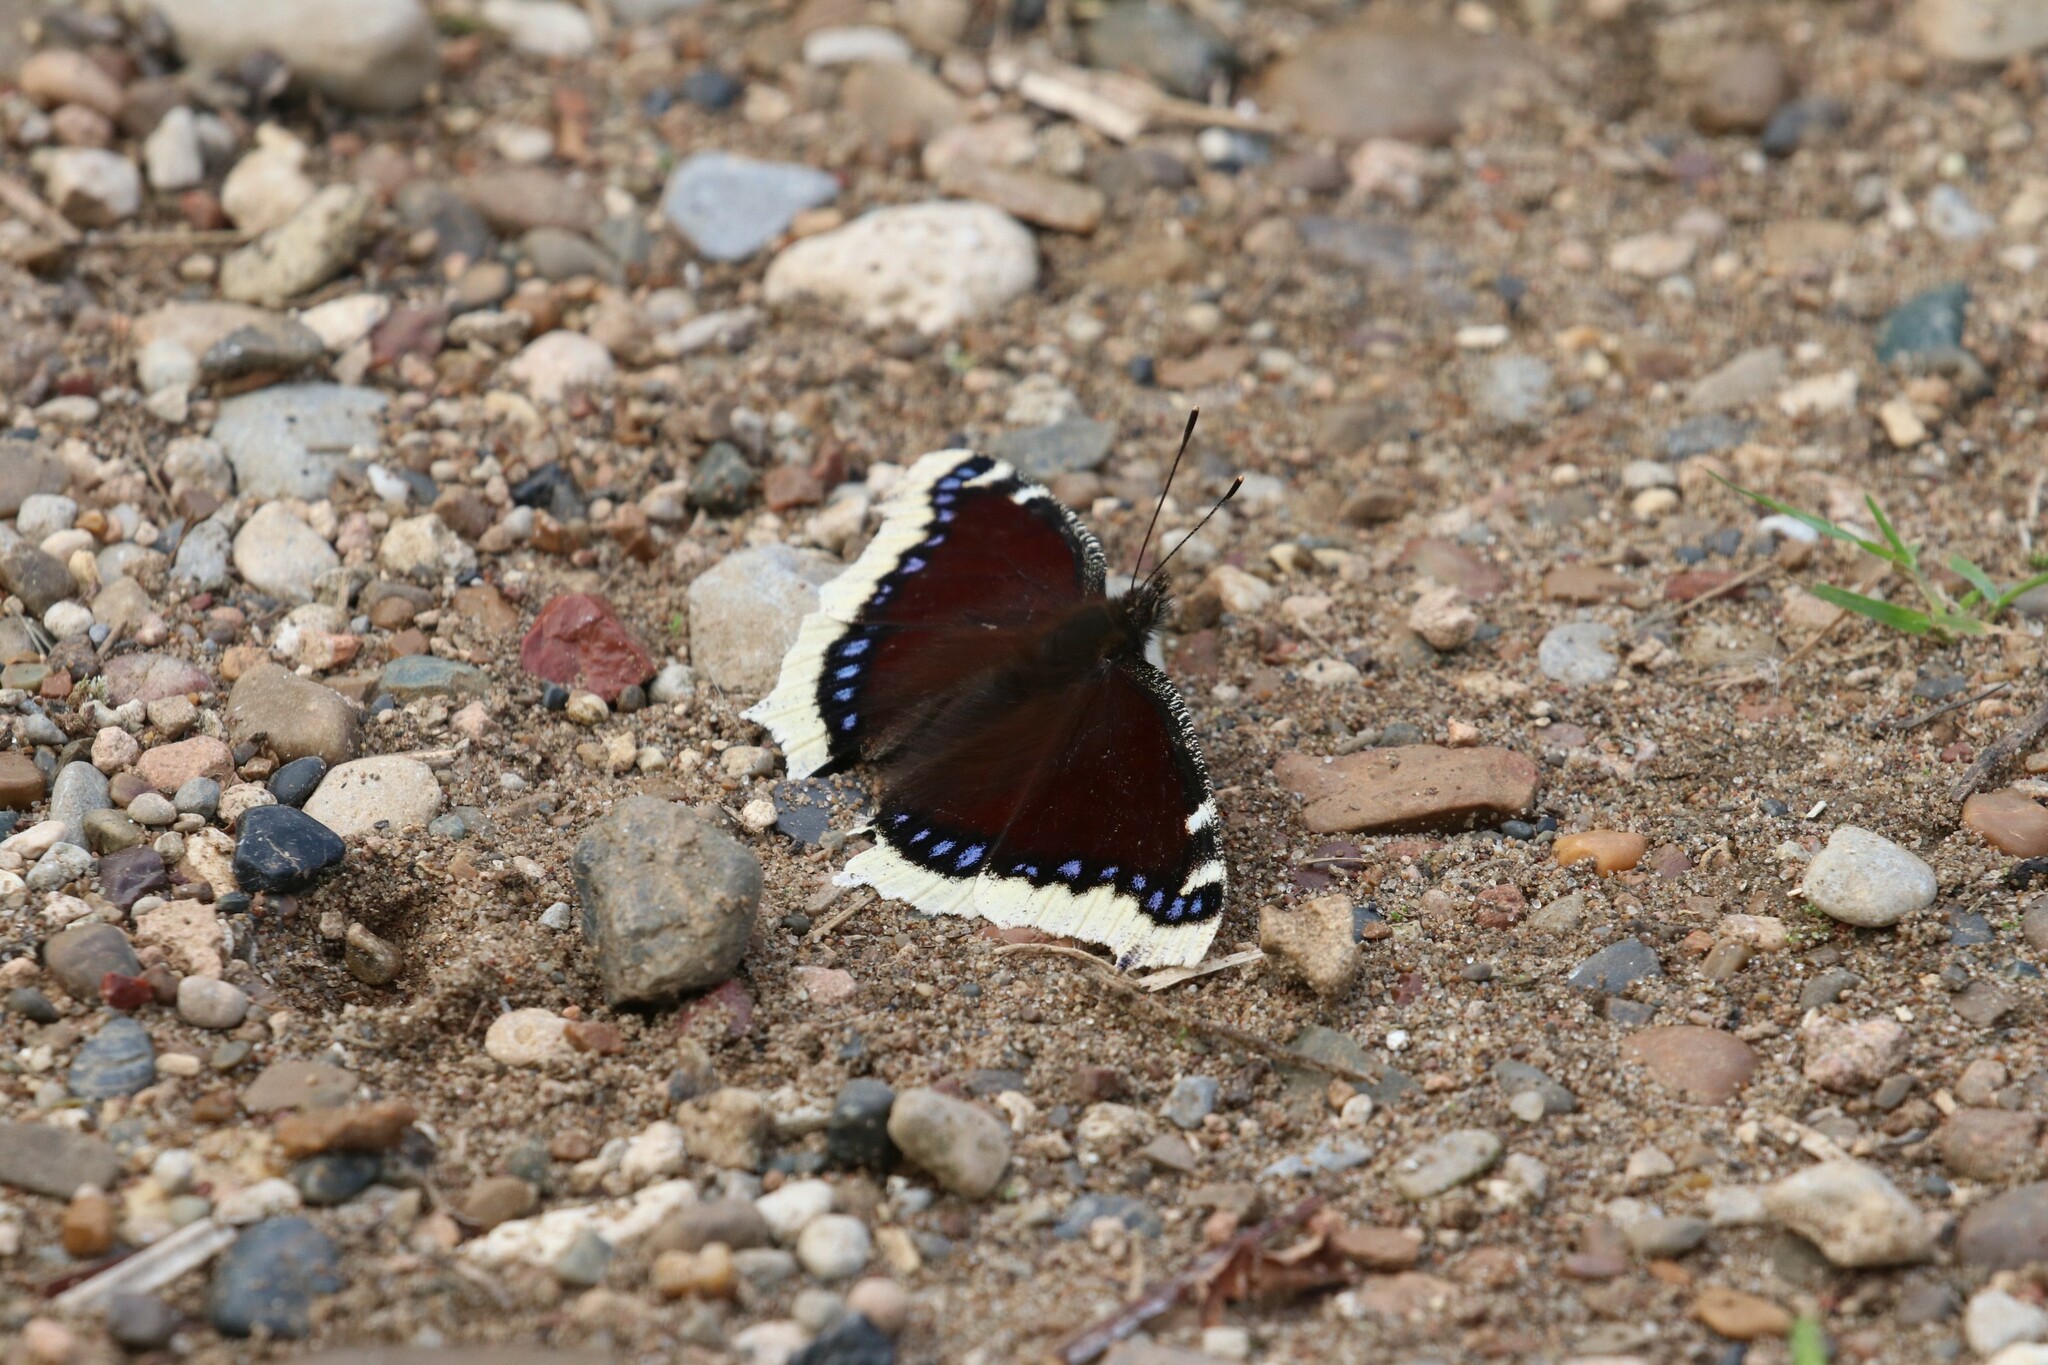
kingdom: Animalia
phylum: Arthropoda
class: Insecta
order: Lepidoptera
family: Nymphalidae
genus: Nymphalis
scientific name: Nymphalis antiopa
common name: Camberwell beauty
